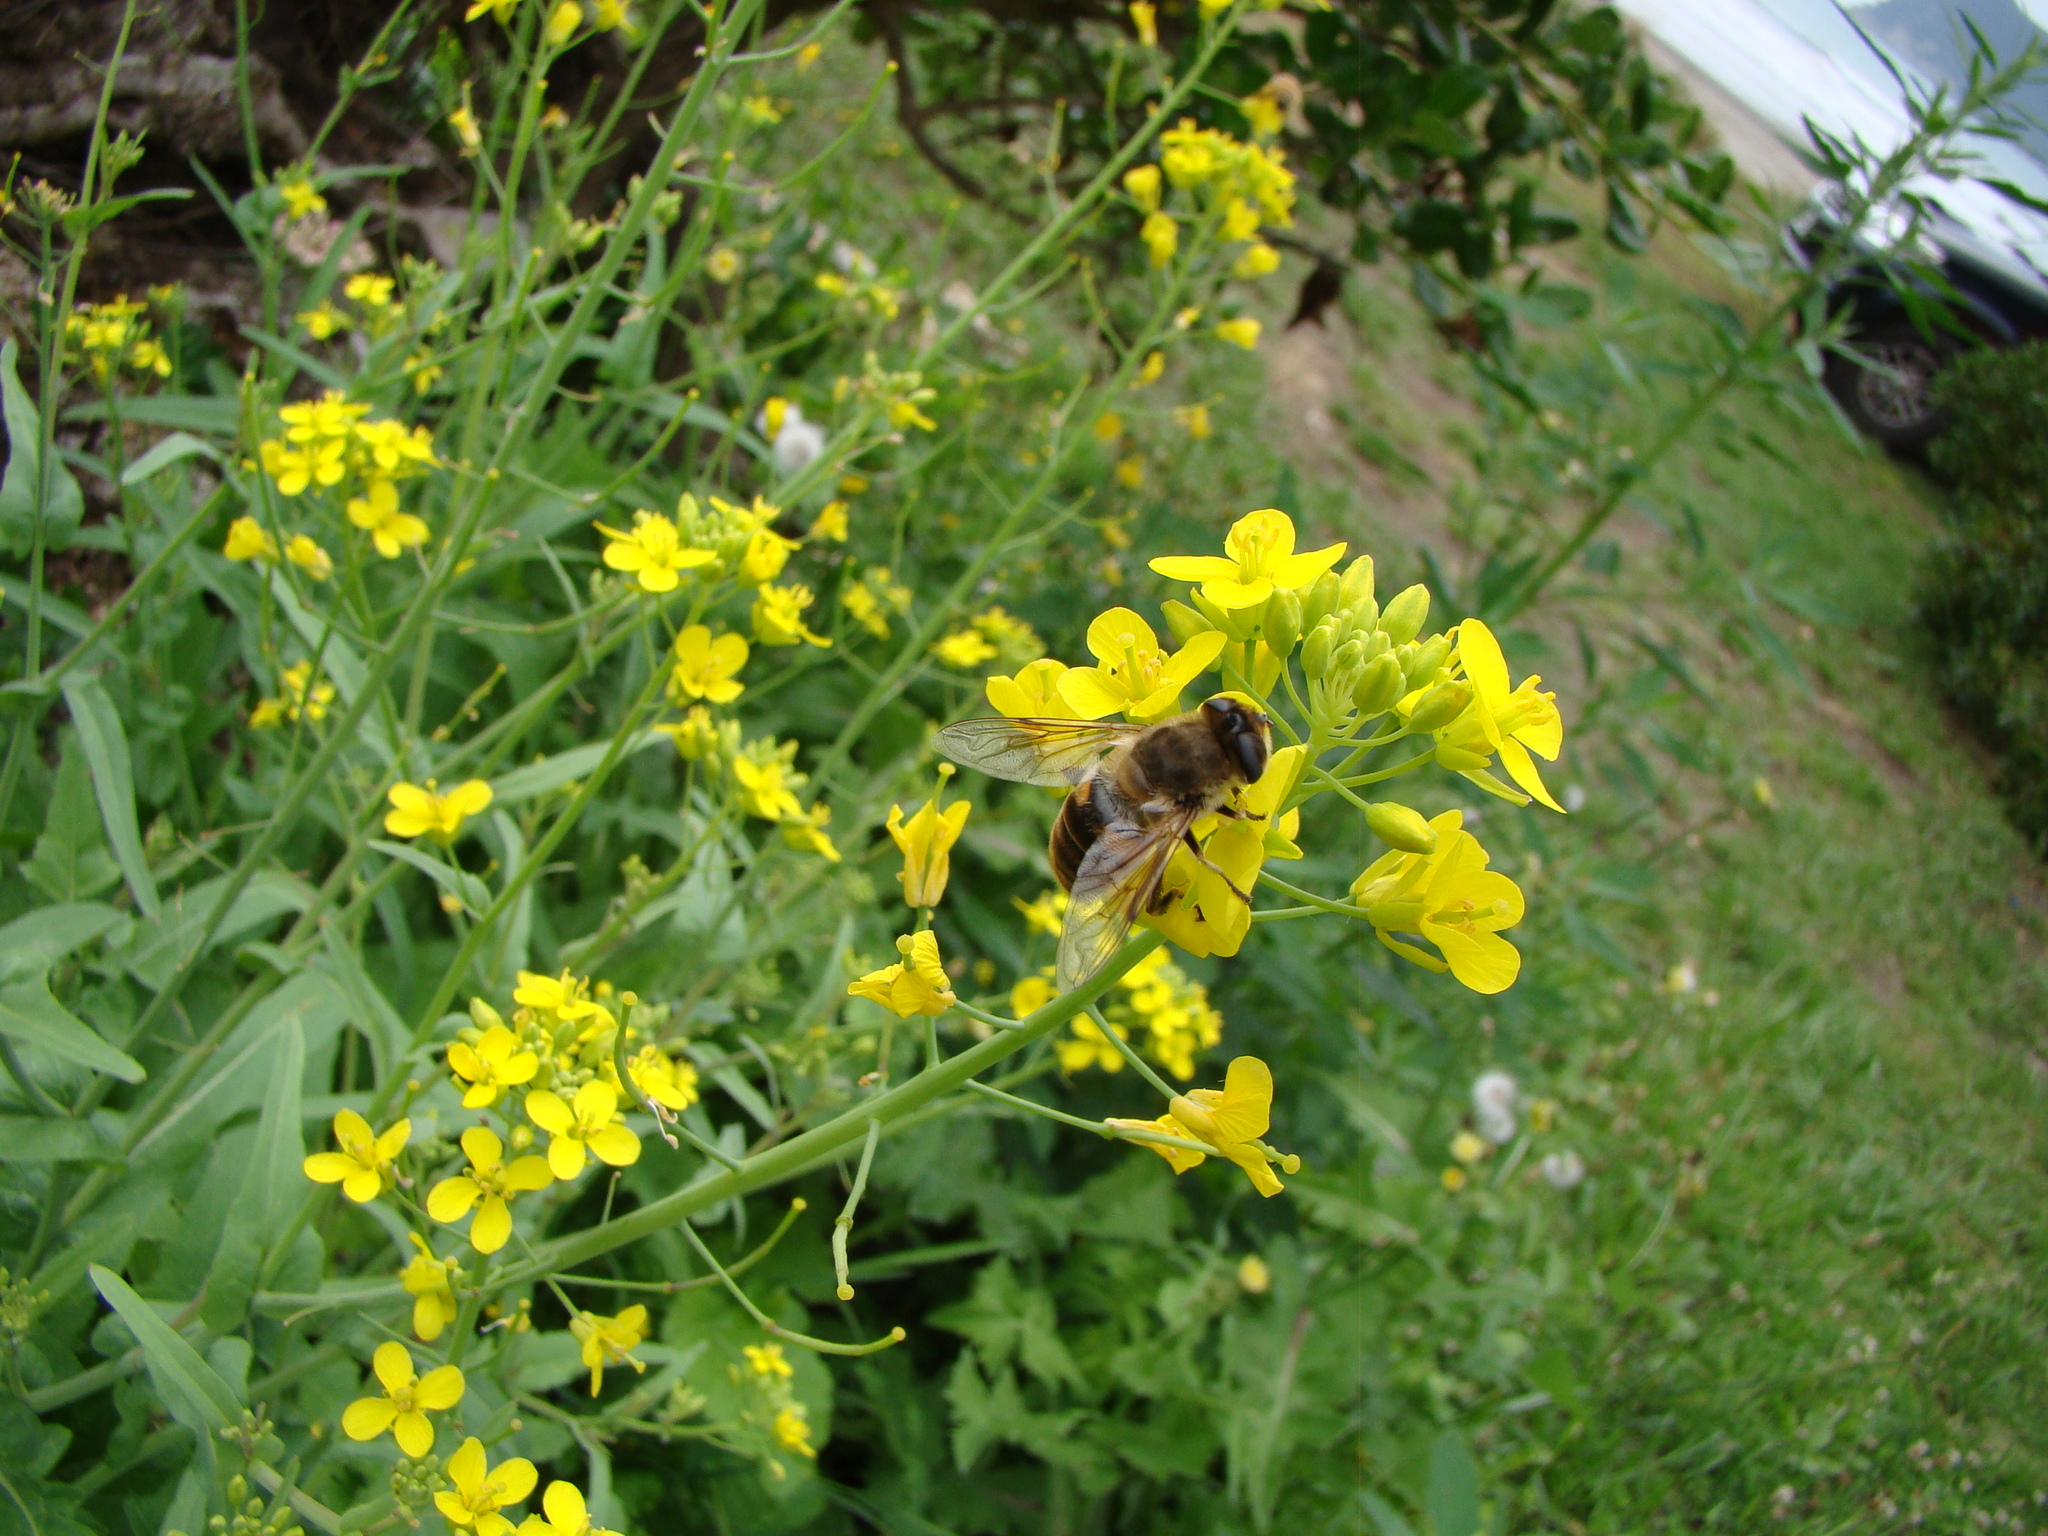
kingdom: Animalia
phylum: Arthropoda
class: Insecta
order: Diptera
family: Syrphidae
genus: Eristalis
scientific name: Eristalis tenax
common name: Drone fly
